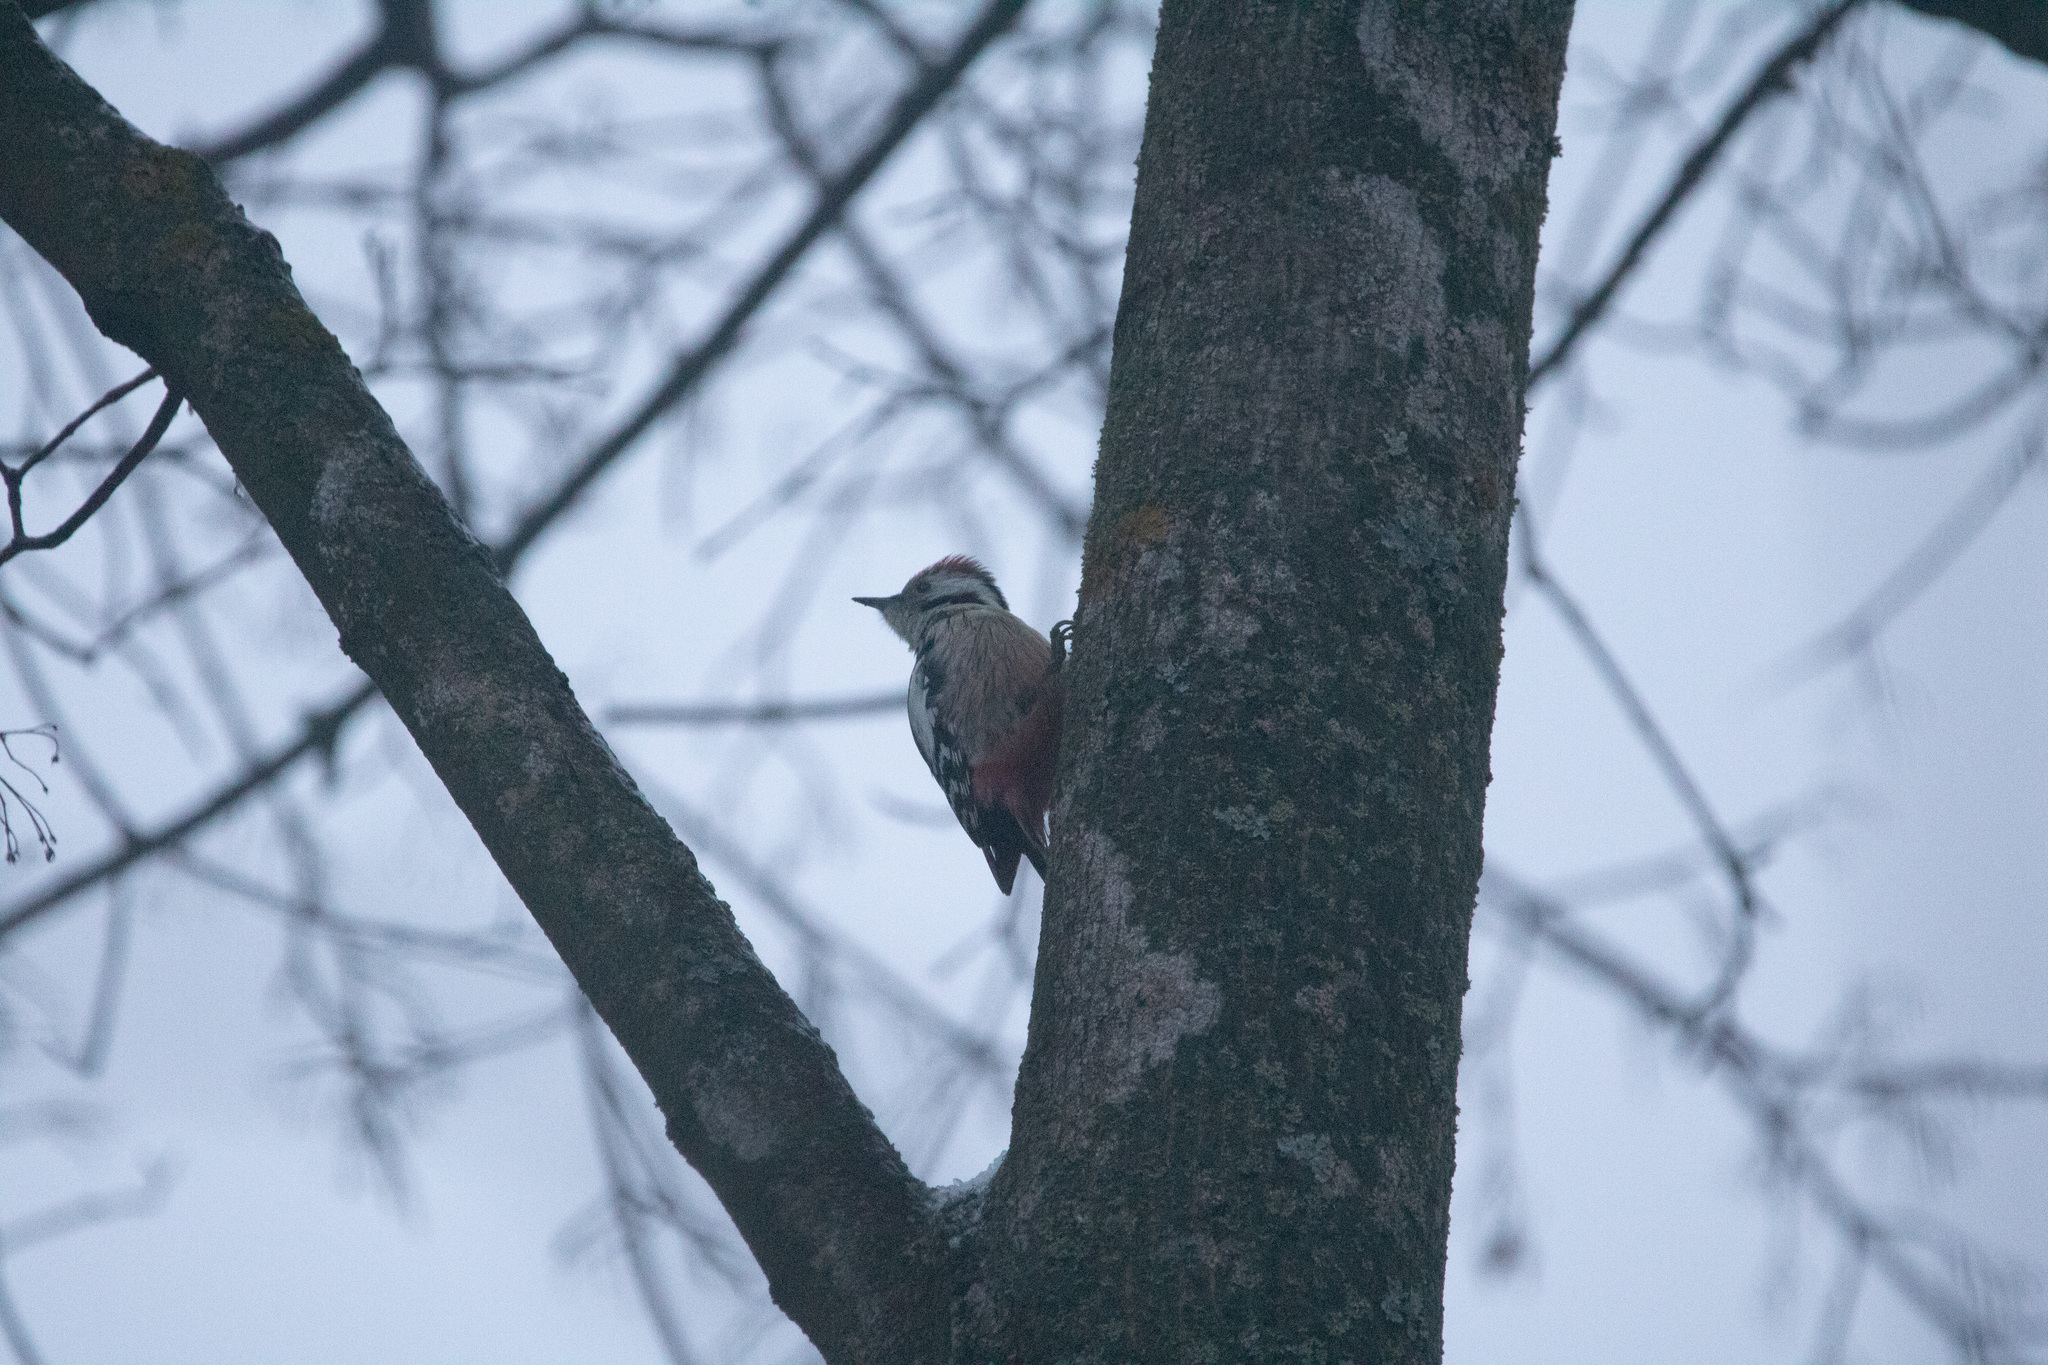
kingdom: Animalia
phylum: Chordata
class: Aves
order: Piciformes
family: Picidae
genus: Dendrocoptes
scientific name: Dendrocoptes medius
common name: Middle spotted woodpecker
